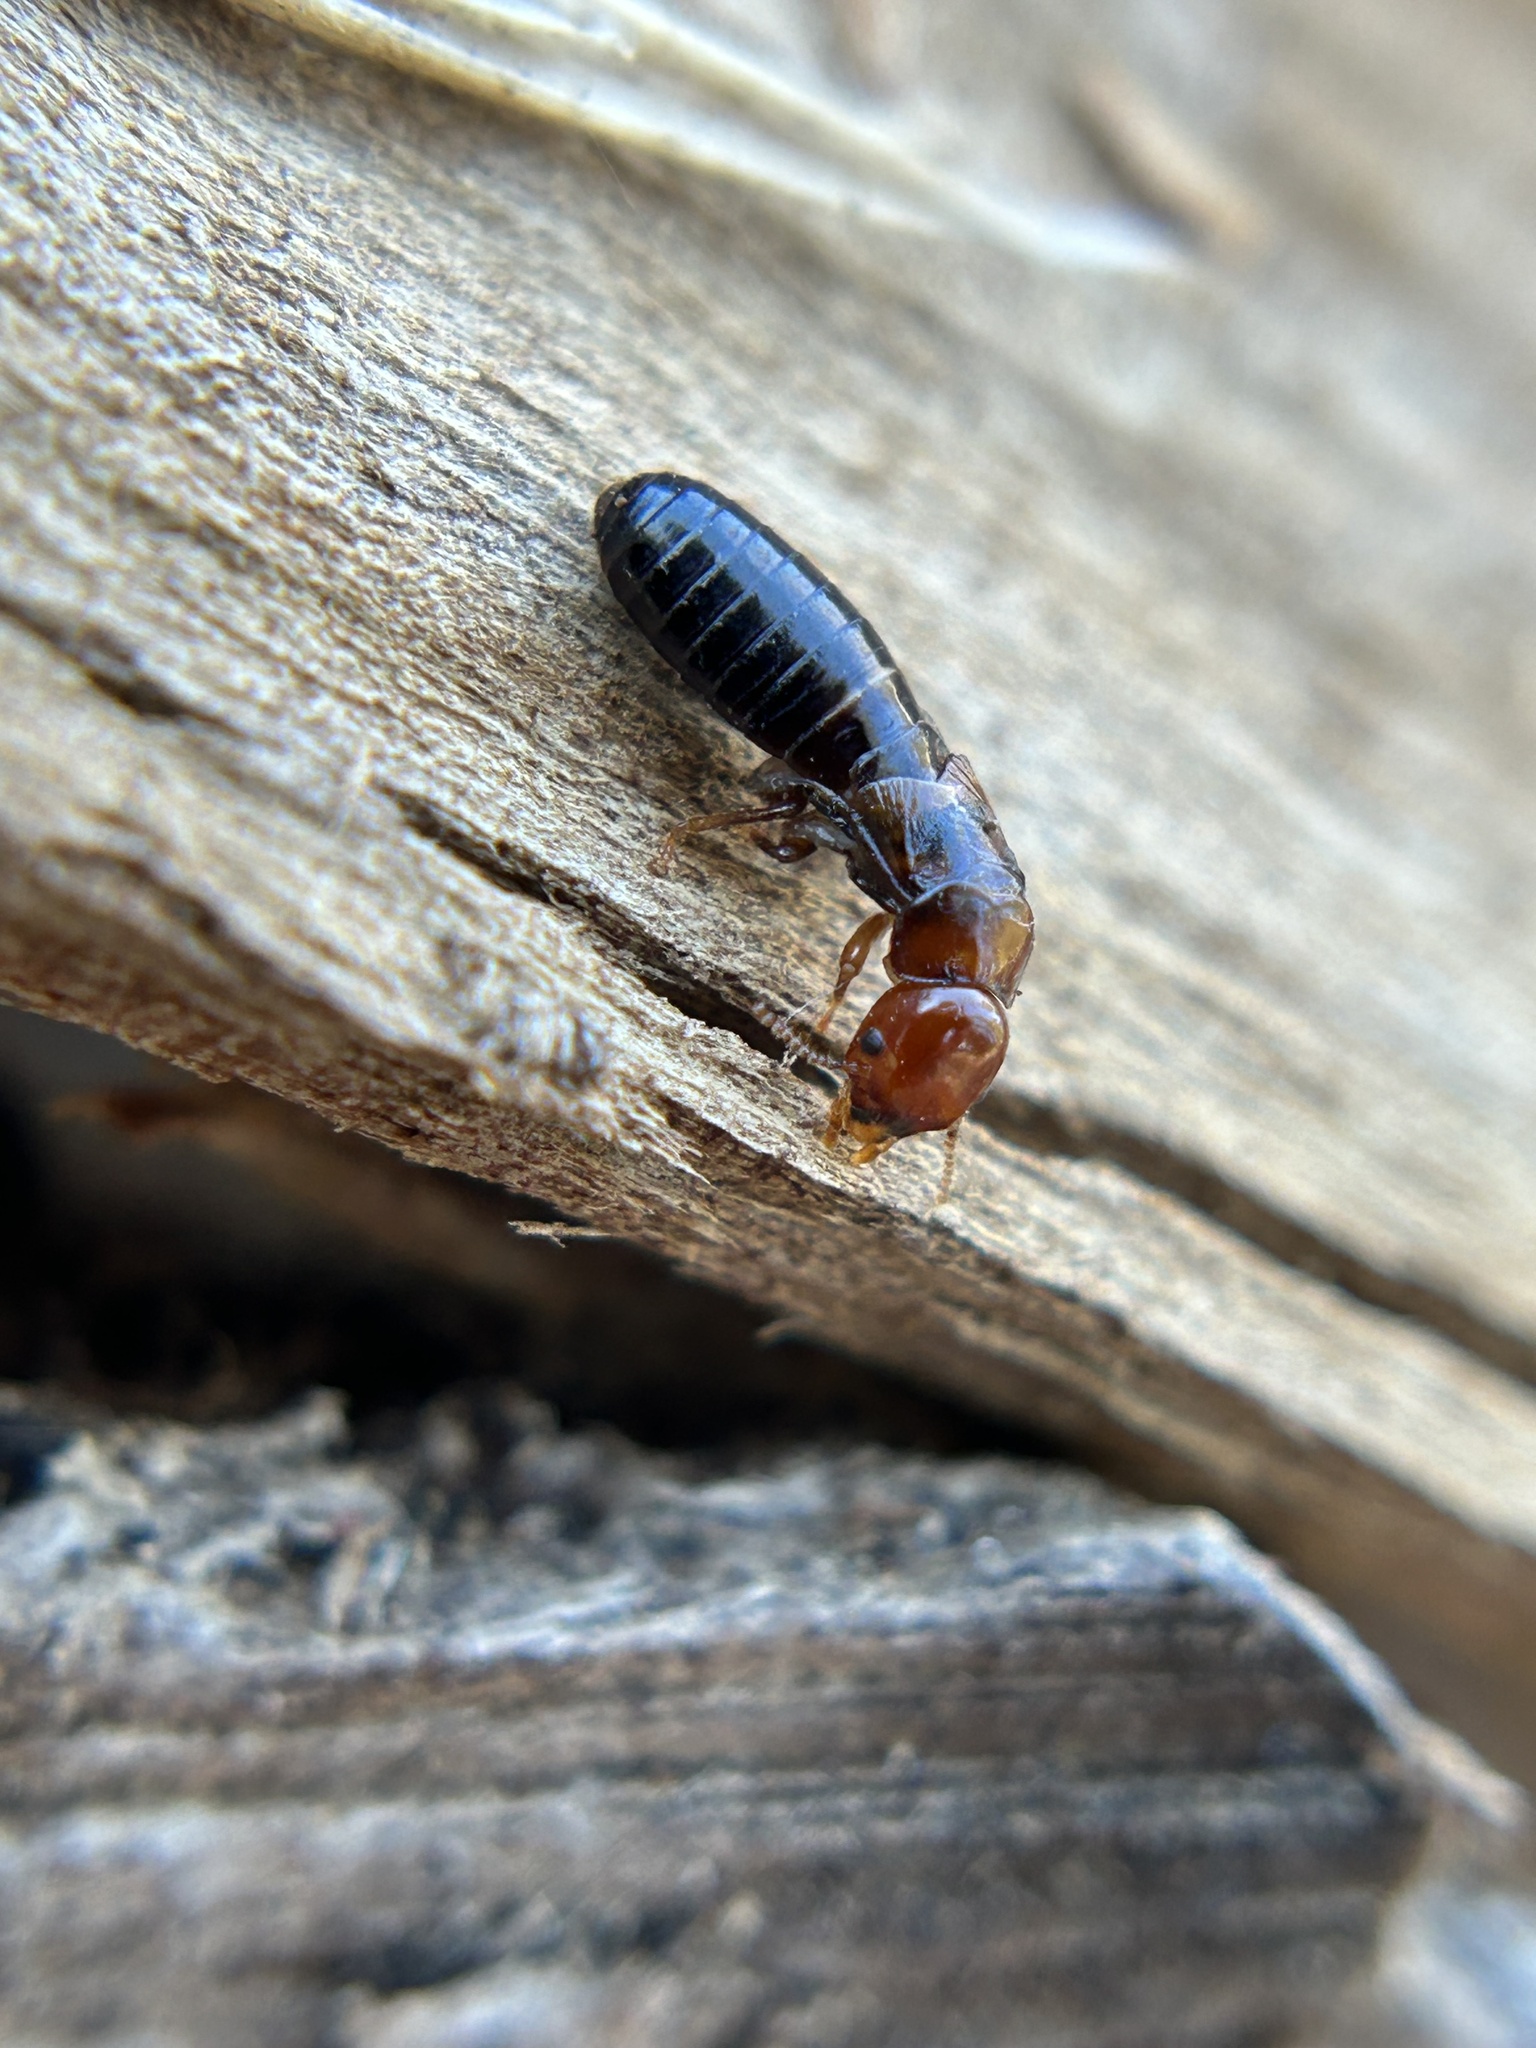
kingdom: Animalia
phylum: Arthropoda
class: Insecta
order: Blattodea
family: Kalotermitidae
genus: Incisitermes
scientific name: Incisitermes minor
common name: Termite
